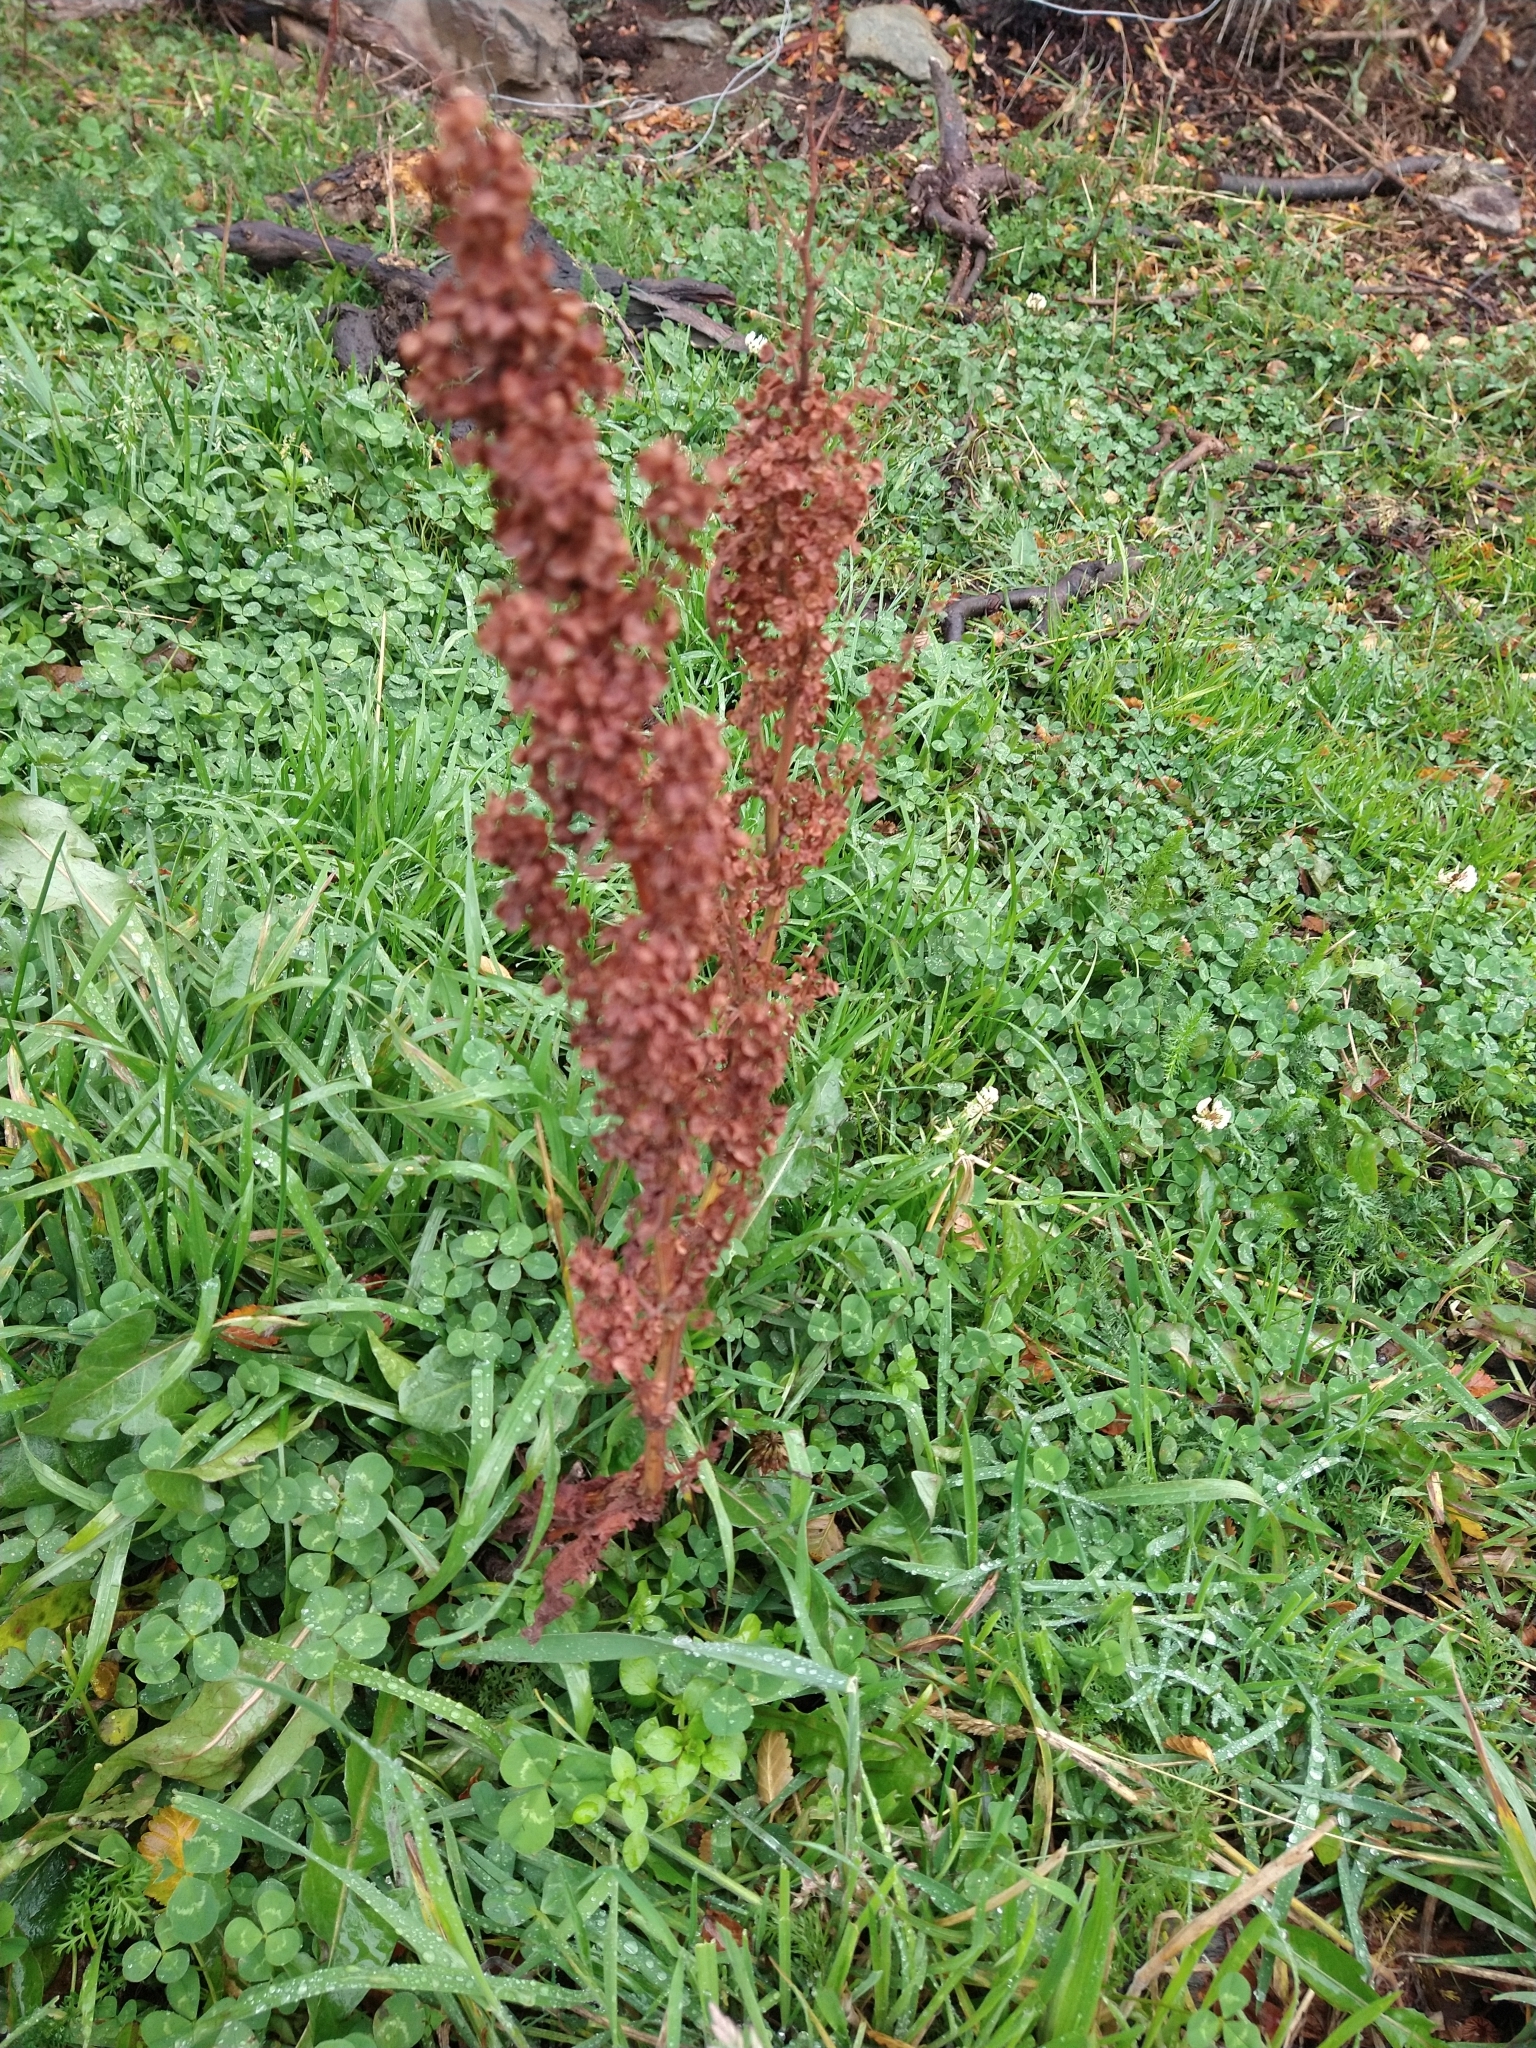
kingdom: Plantae
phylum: Tracheophyta
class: Magnoliopsida
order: Caryophyllales
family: Polygonaceae
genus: Rumex
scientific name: Rumex crispus
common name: Curled dock
